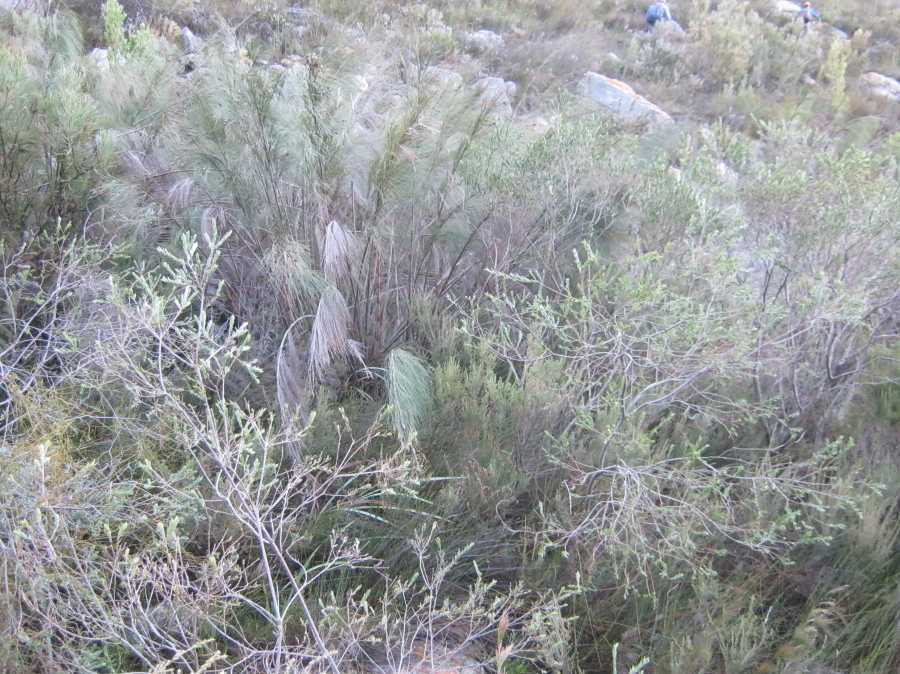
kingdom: Plantae
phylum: Tracheophyta
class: Magnoliopsida
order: Fabales
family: Fabaceae
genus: Liparia
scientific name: Liparia racemosa
